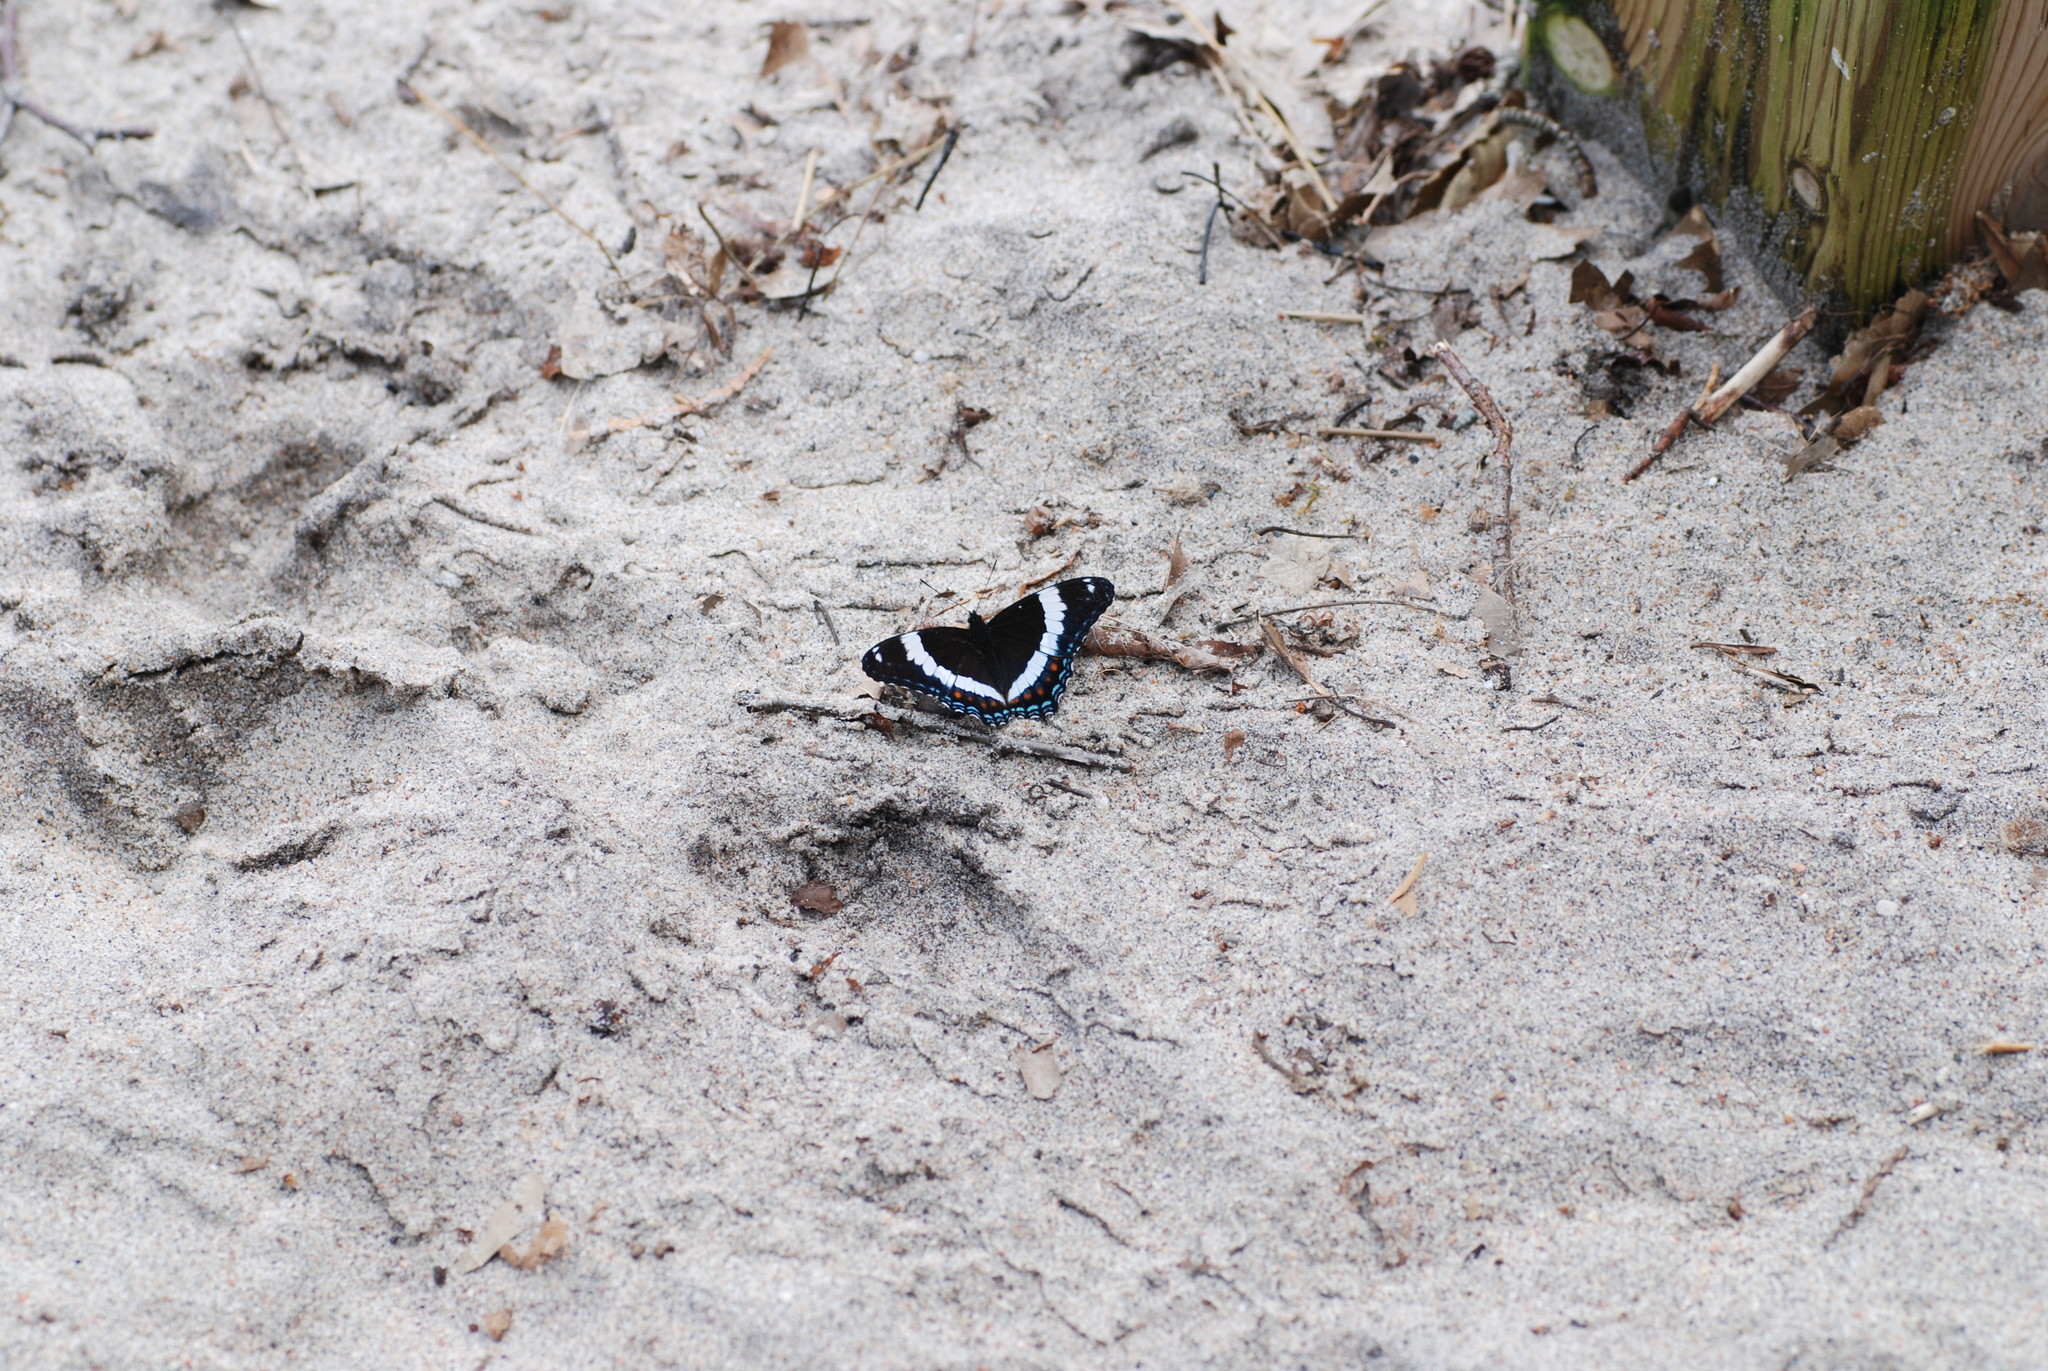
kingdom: Animalia
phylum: Arthropoda
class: Insecta
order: Lepidoptera
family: Nymphalidae
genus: Limenitis
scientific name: Limenitis arthemis
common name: Red-spotted admiral
